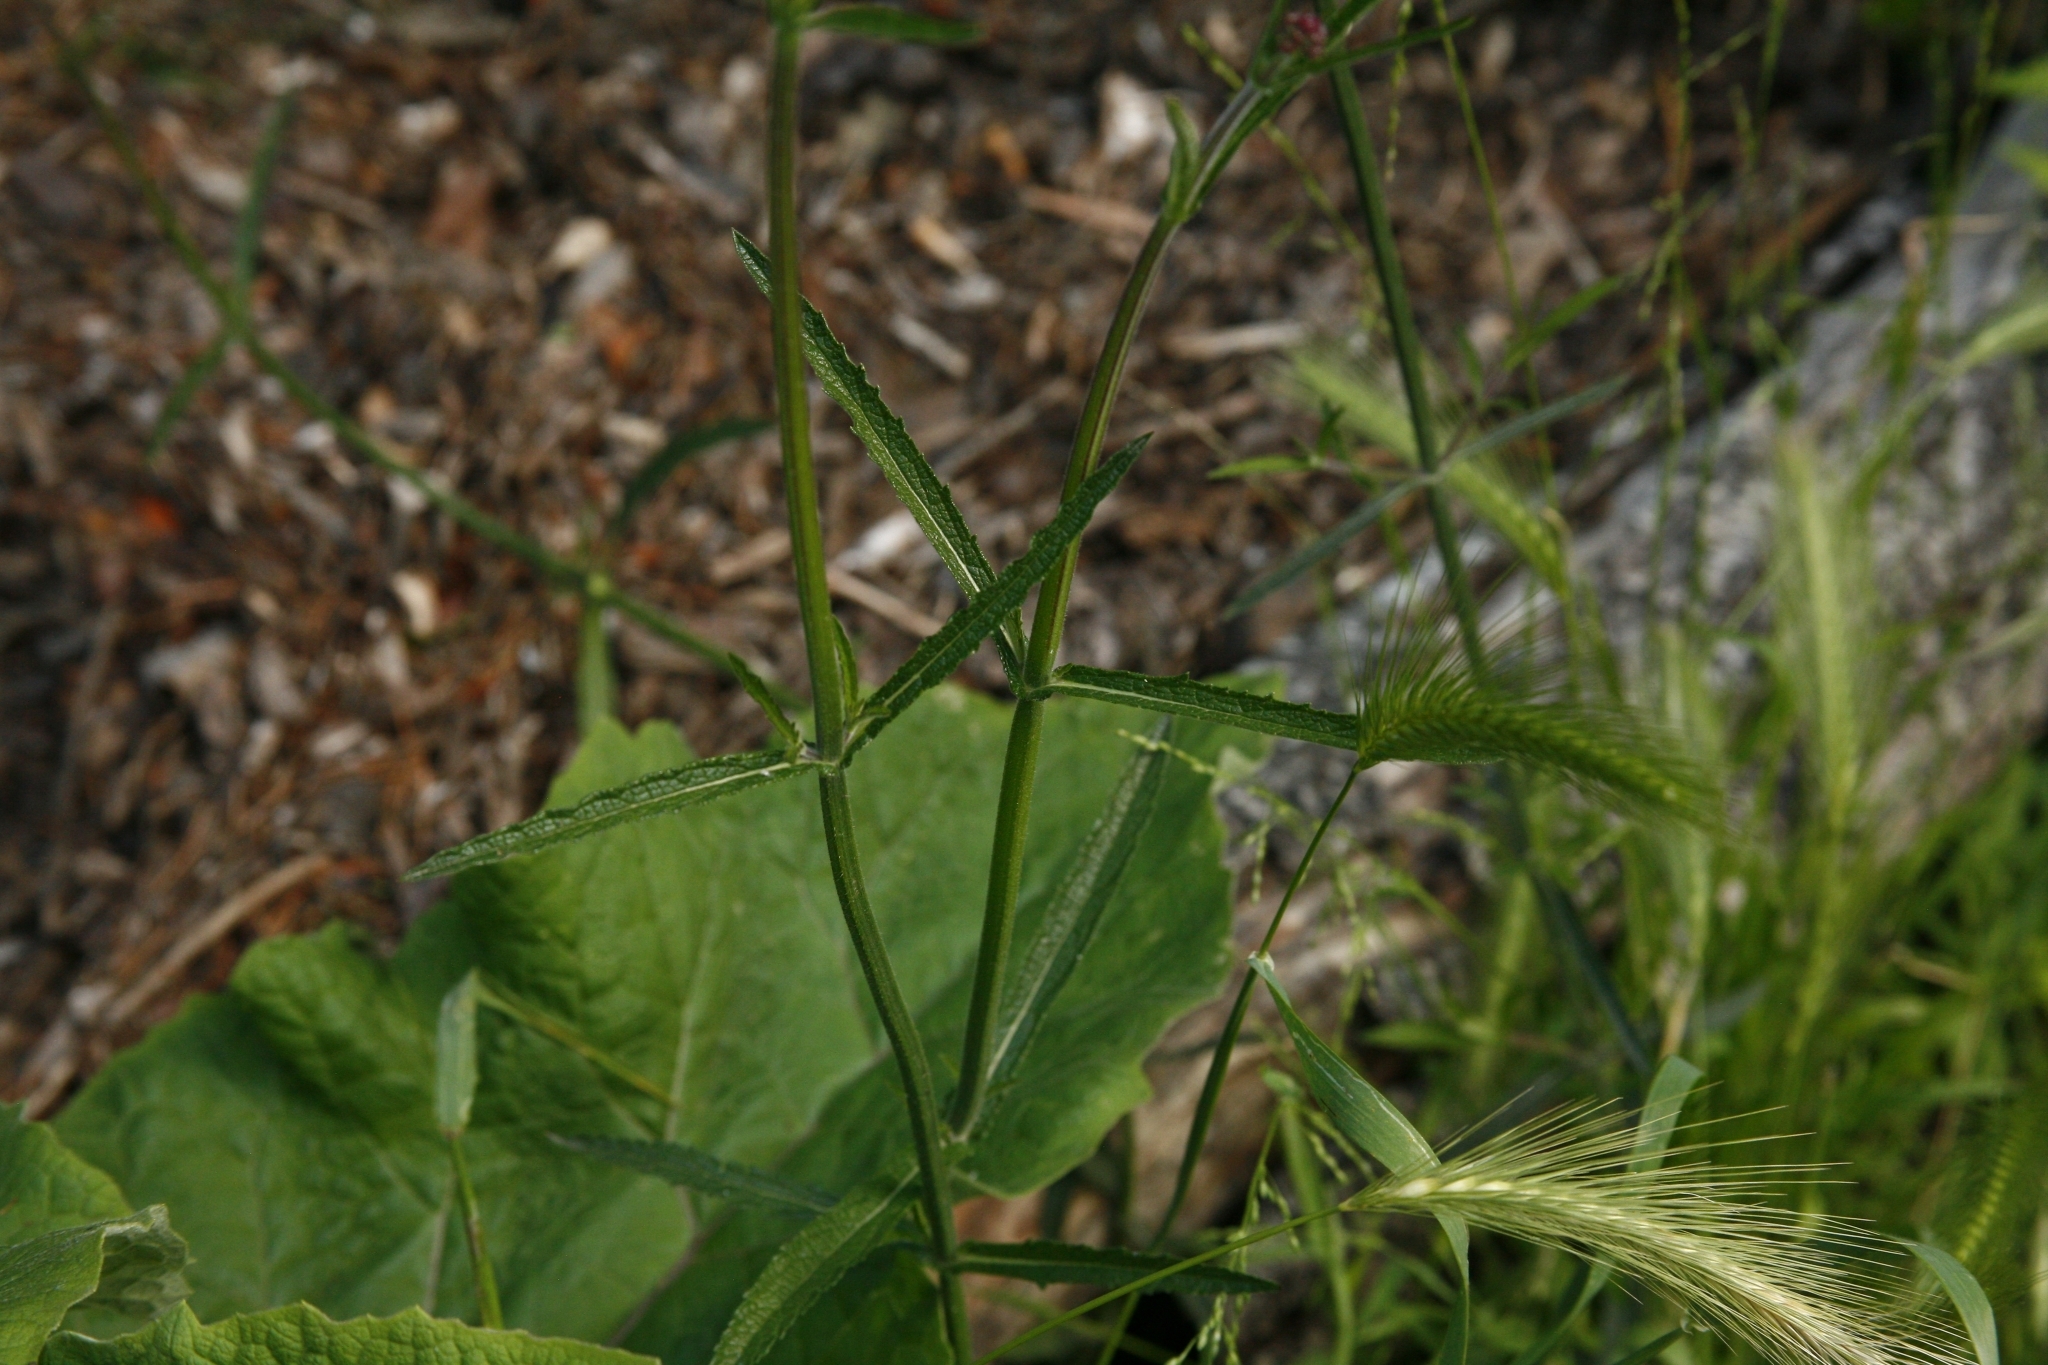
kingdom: Plantae
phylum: Tracheophyta
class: Magnoliopsida
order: Lamiales
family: Verbenaceae
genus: Verbena
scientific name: Verbena bonariensis
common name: Purpletop vervain
